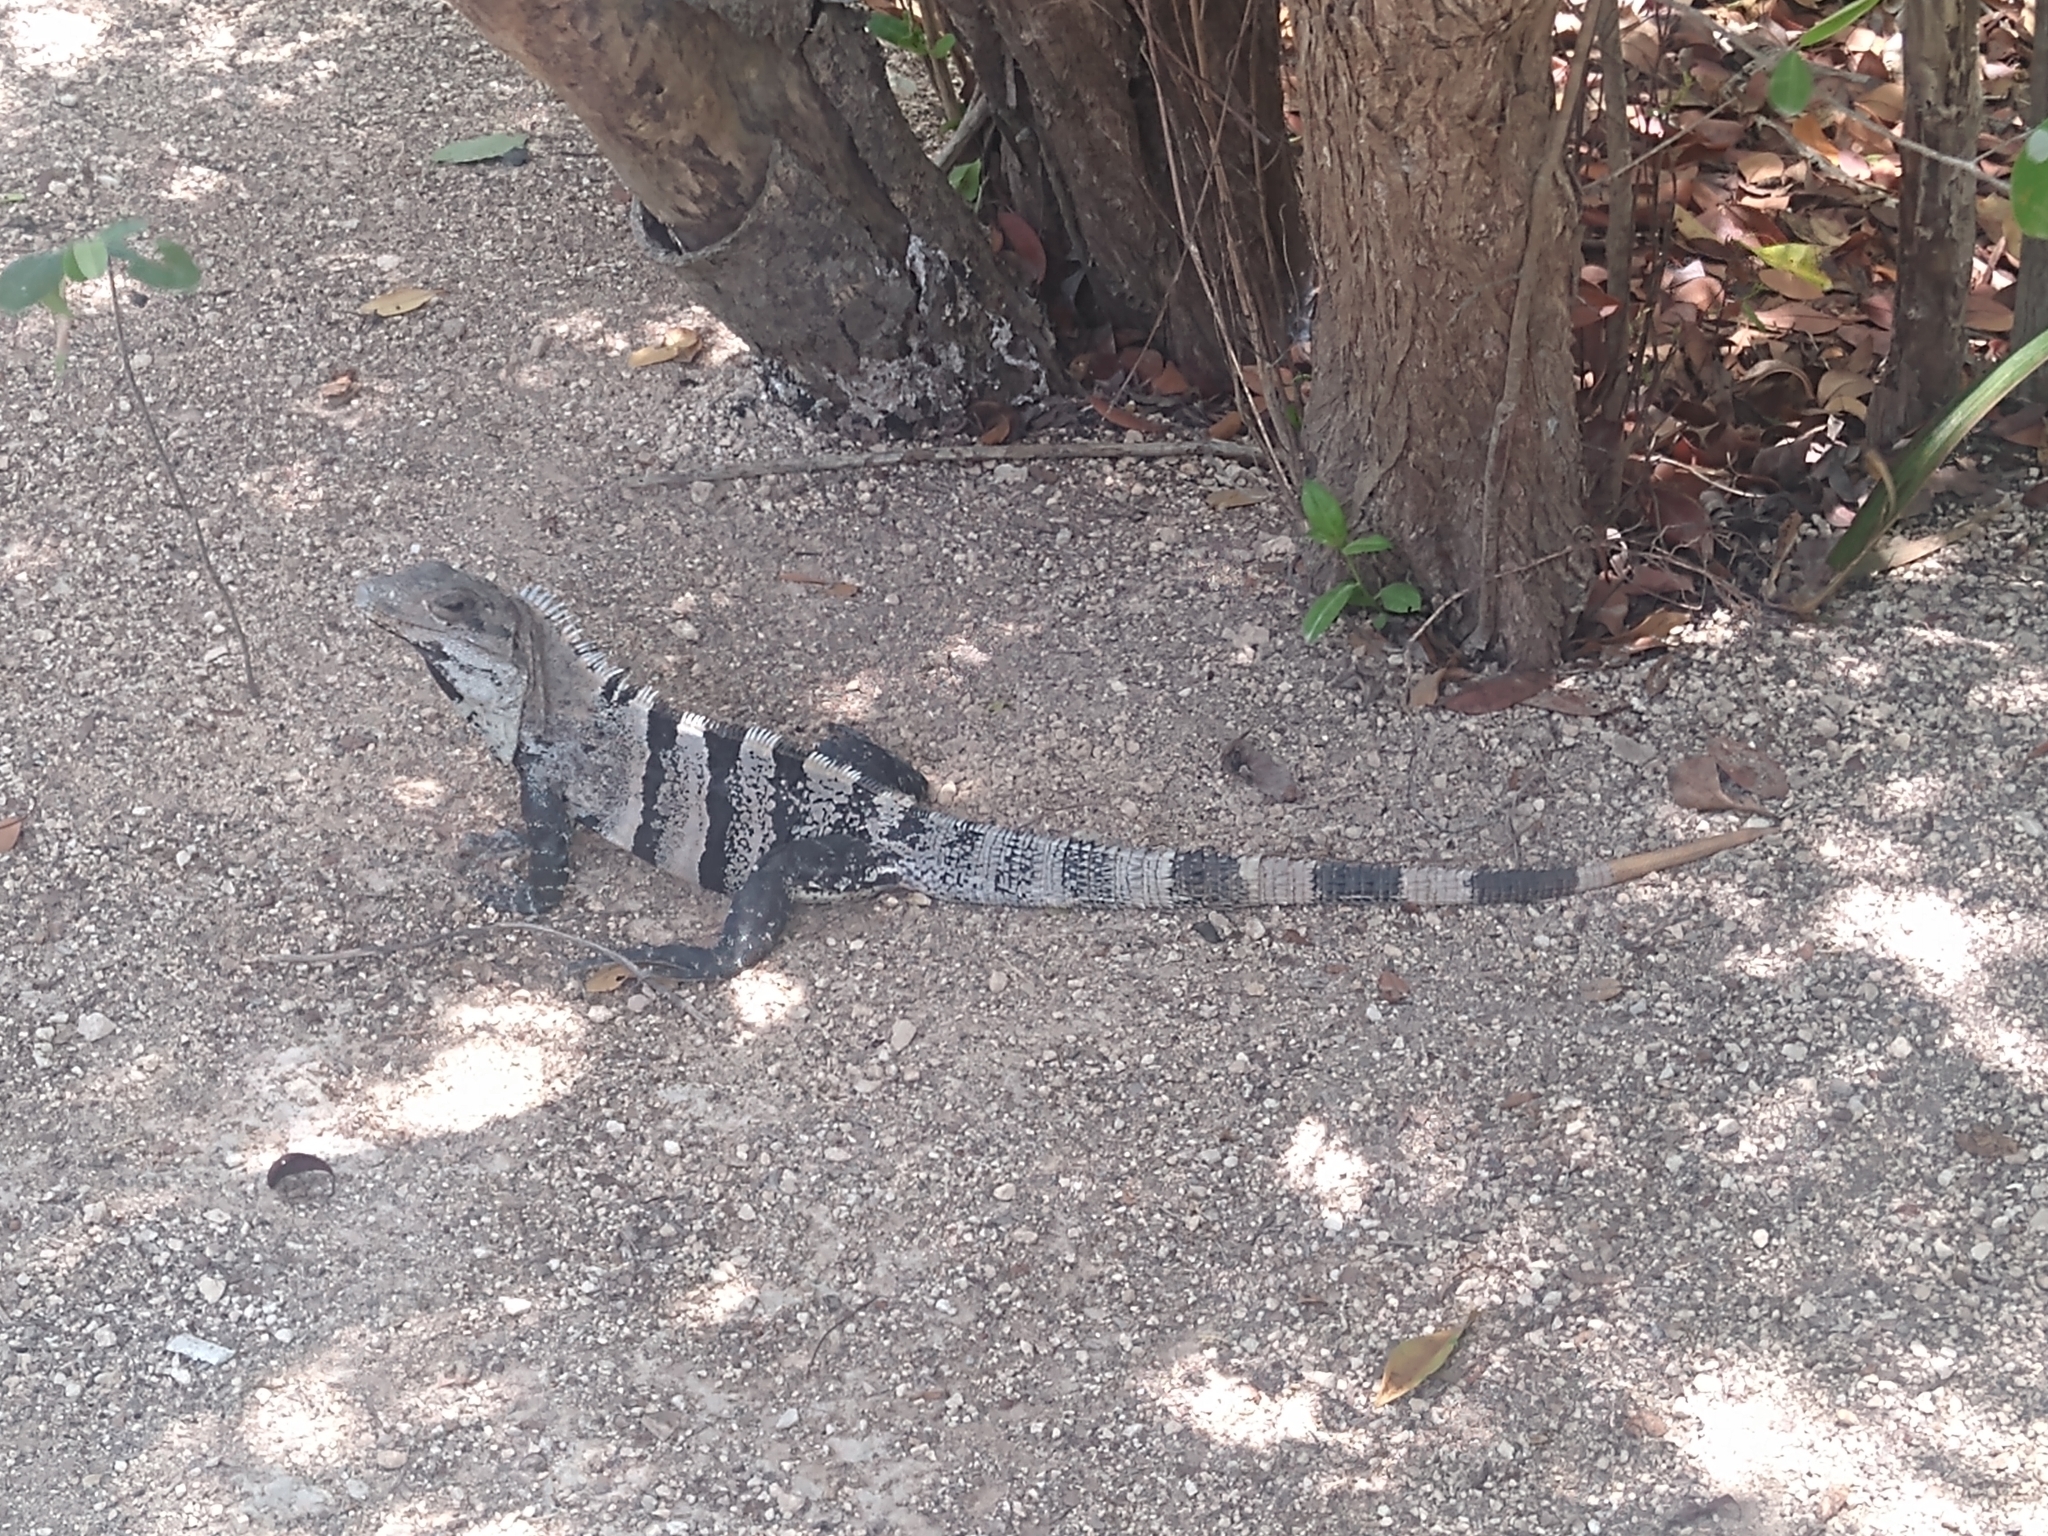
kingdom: Animalia
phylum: Chordata
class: Squamata
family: Iguanidae
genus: Ctenosaura
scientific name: Ctenosaura similis
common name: Black spiny-tailed iguana
